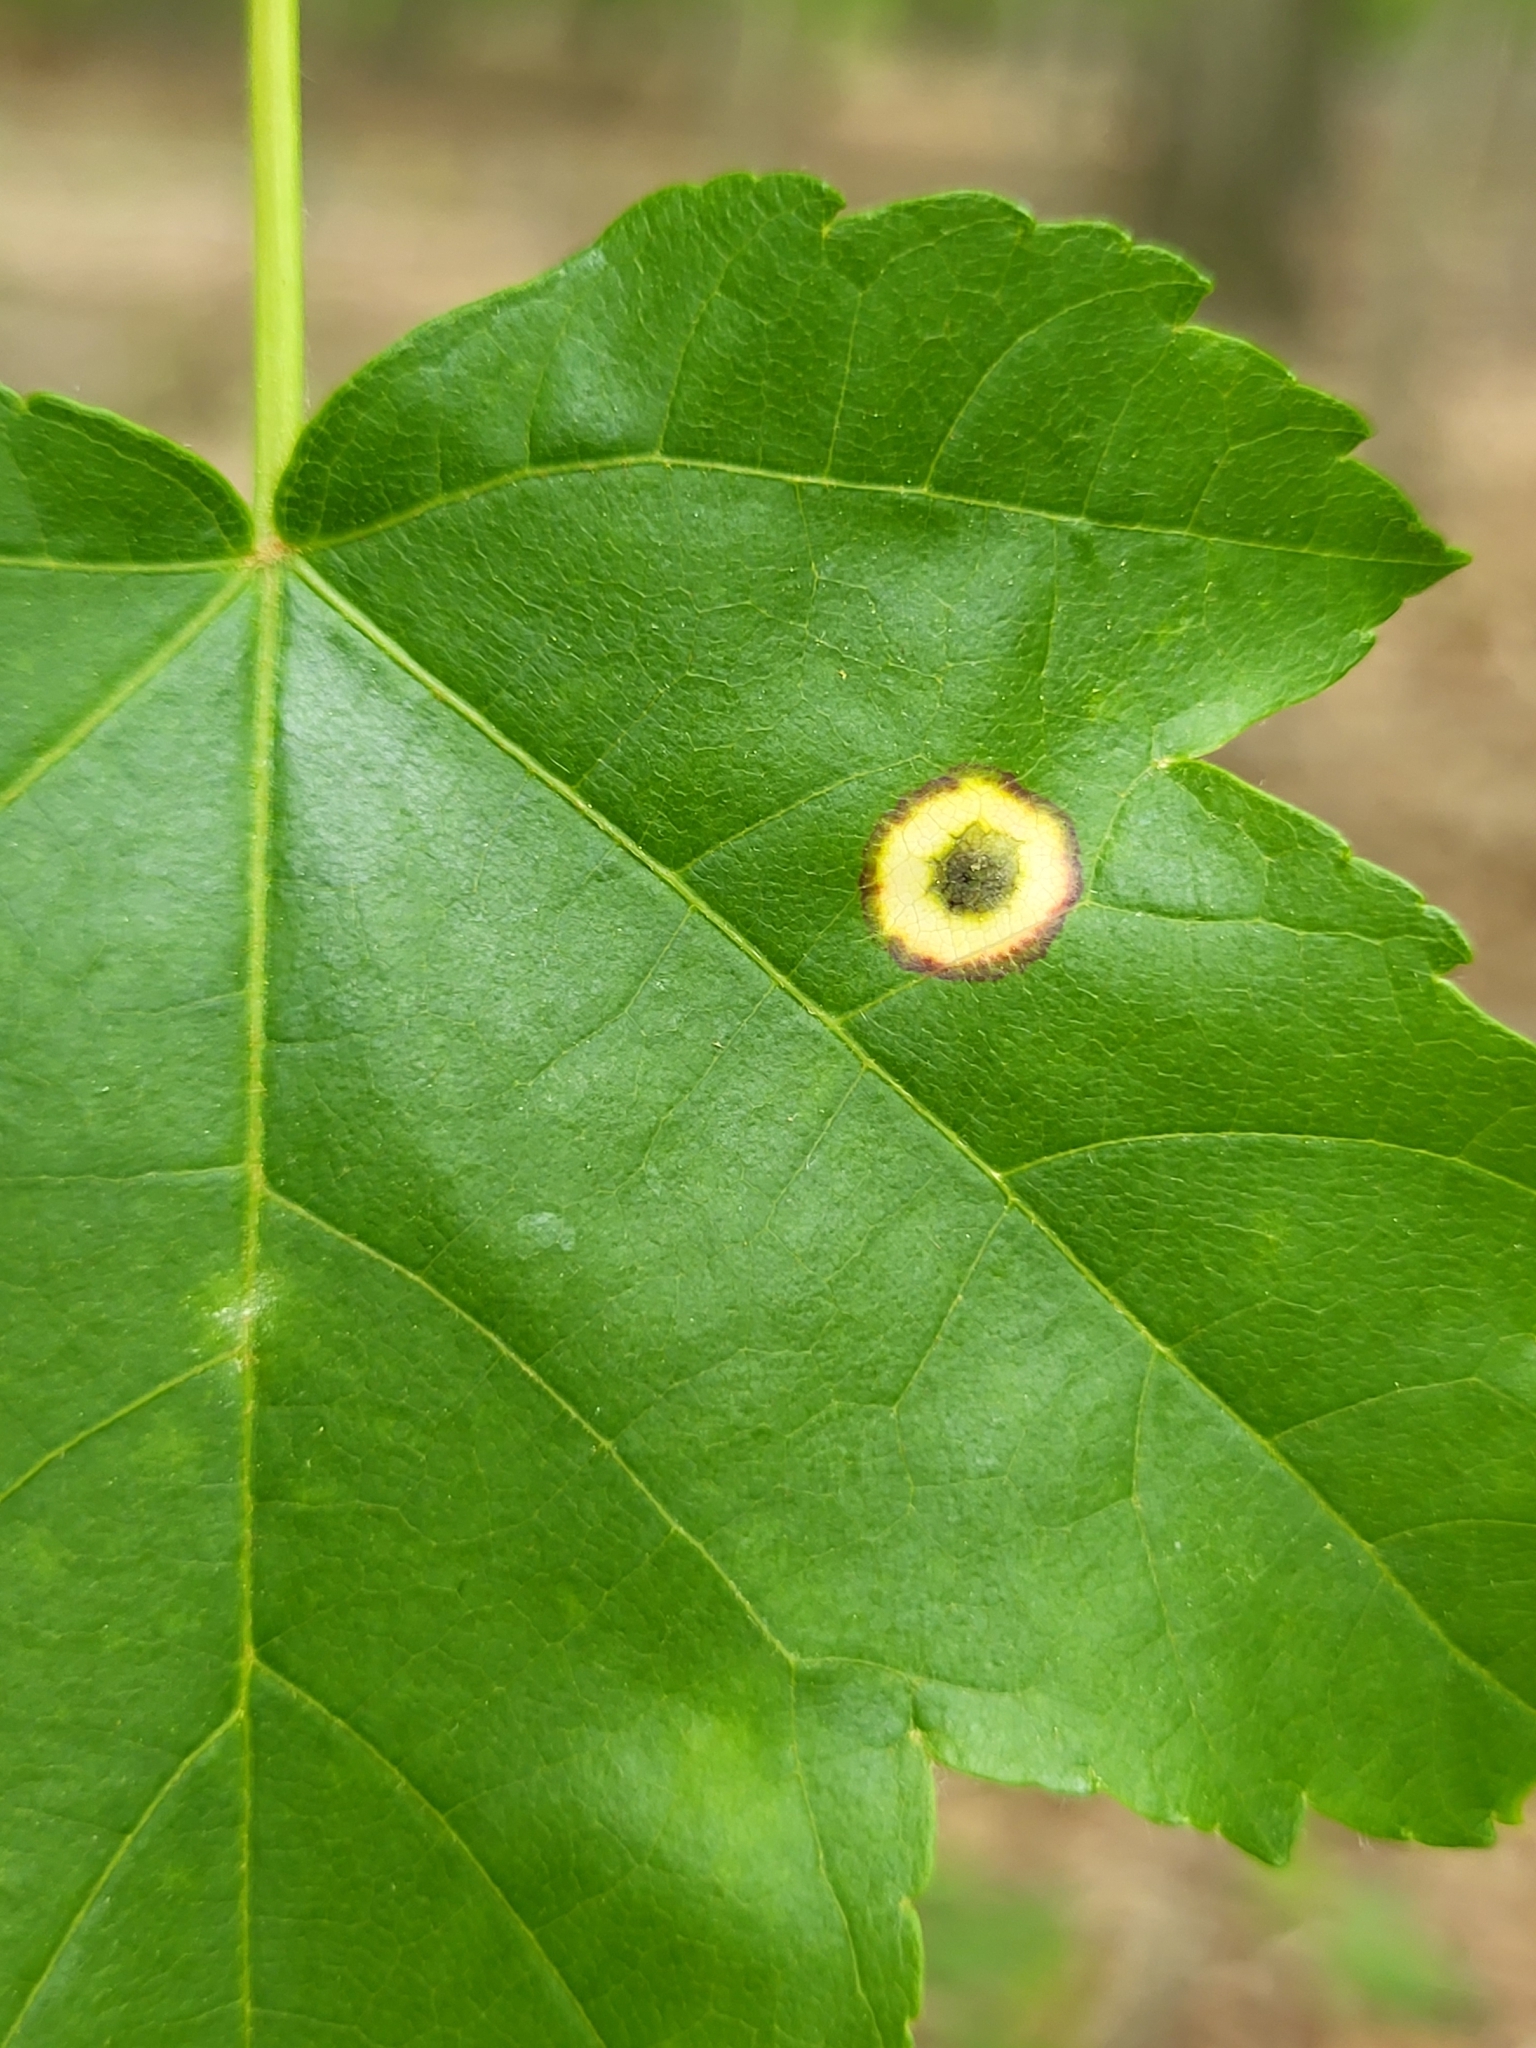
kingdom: Animalia
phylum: Arthropoda
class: Insecta
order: Diptera
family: Cecidomyiidae
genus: Acericecis
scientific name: Acericecis ocellaris
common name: Ocellate gall midge
